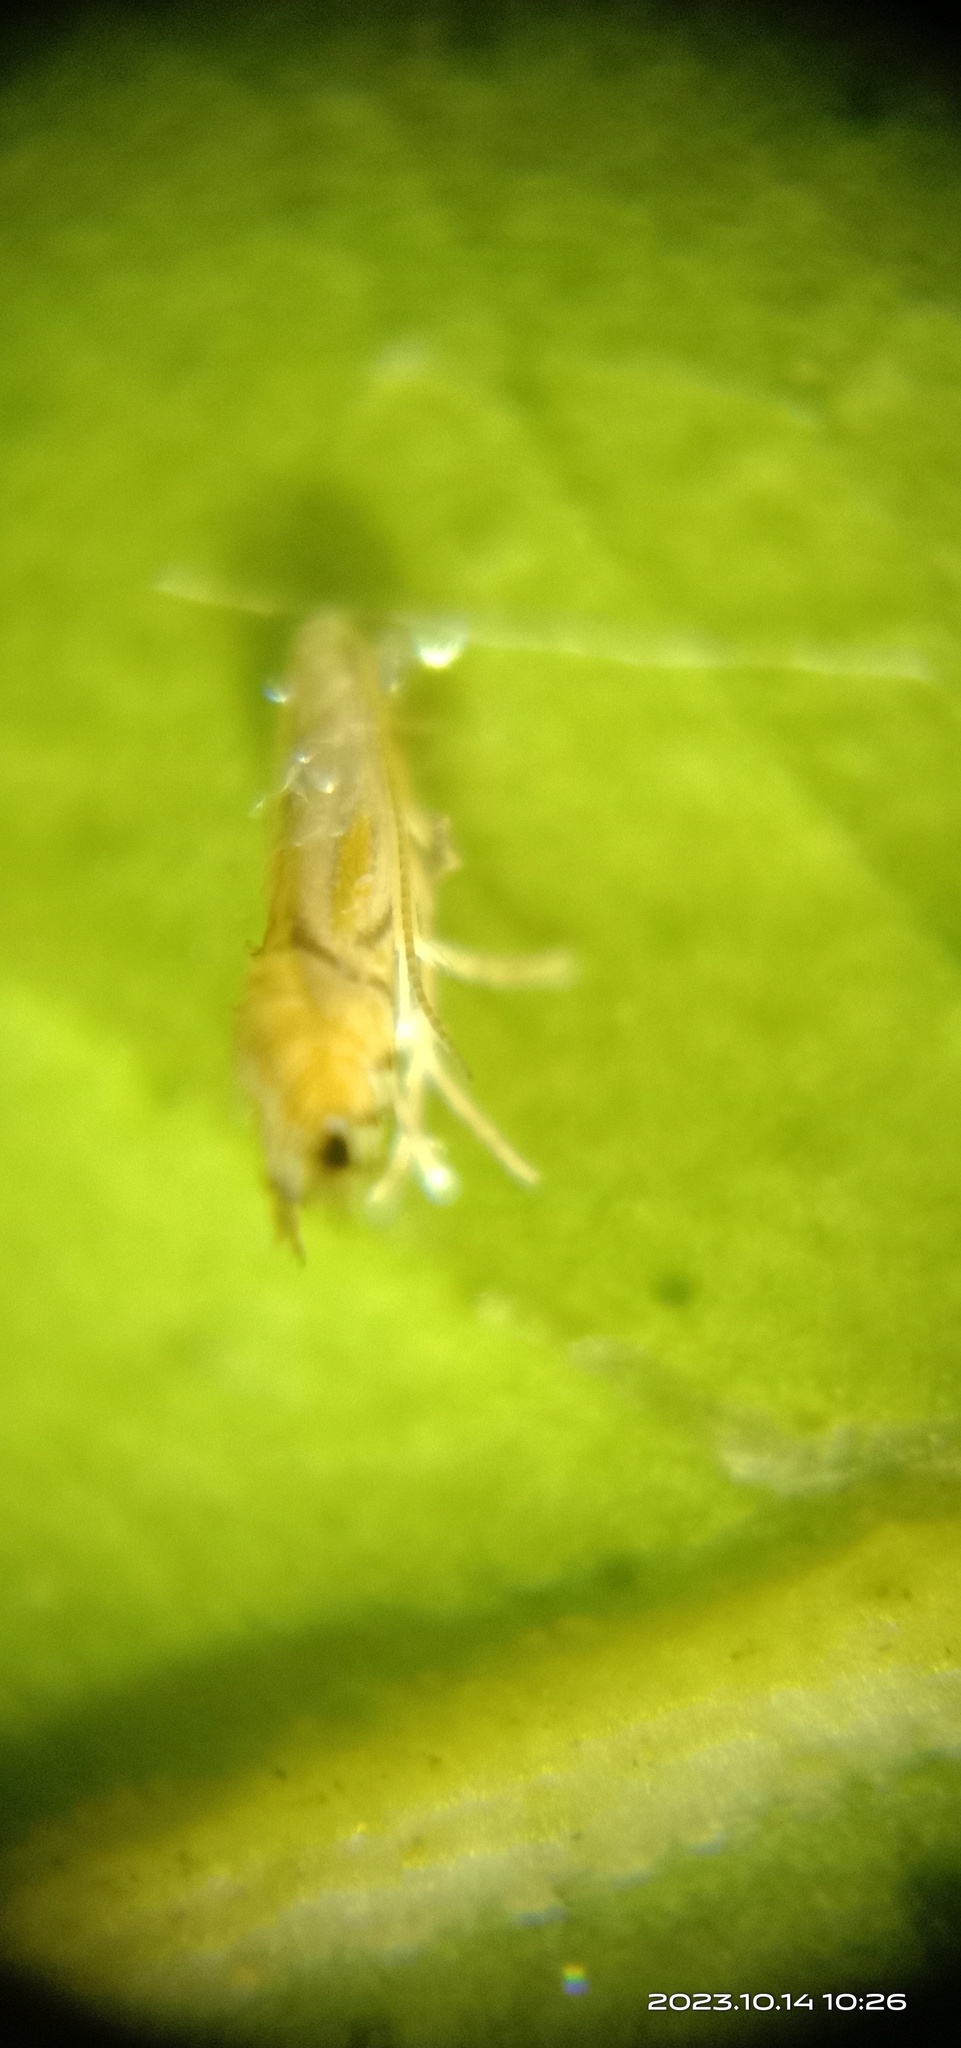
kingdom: Animalia
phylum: Arthropoda
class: Insecta
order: Lepidoptera
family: Gracillariidae
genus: Phyllocnistis
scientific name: Phyllocnistis citrella
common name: Citrus leafminer
